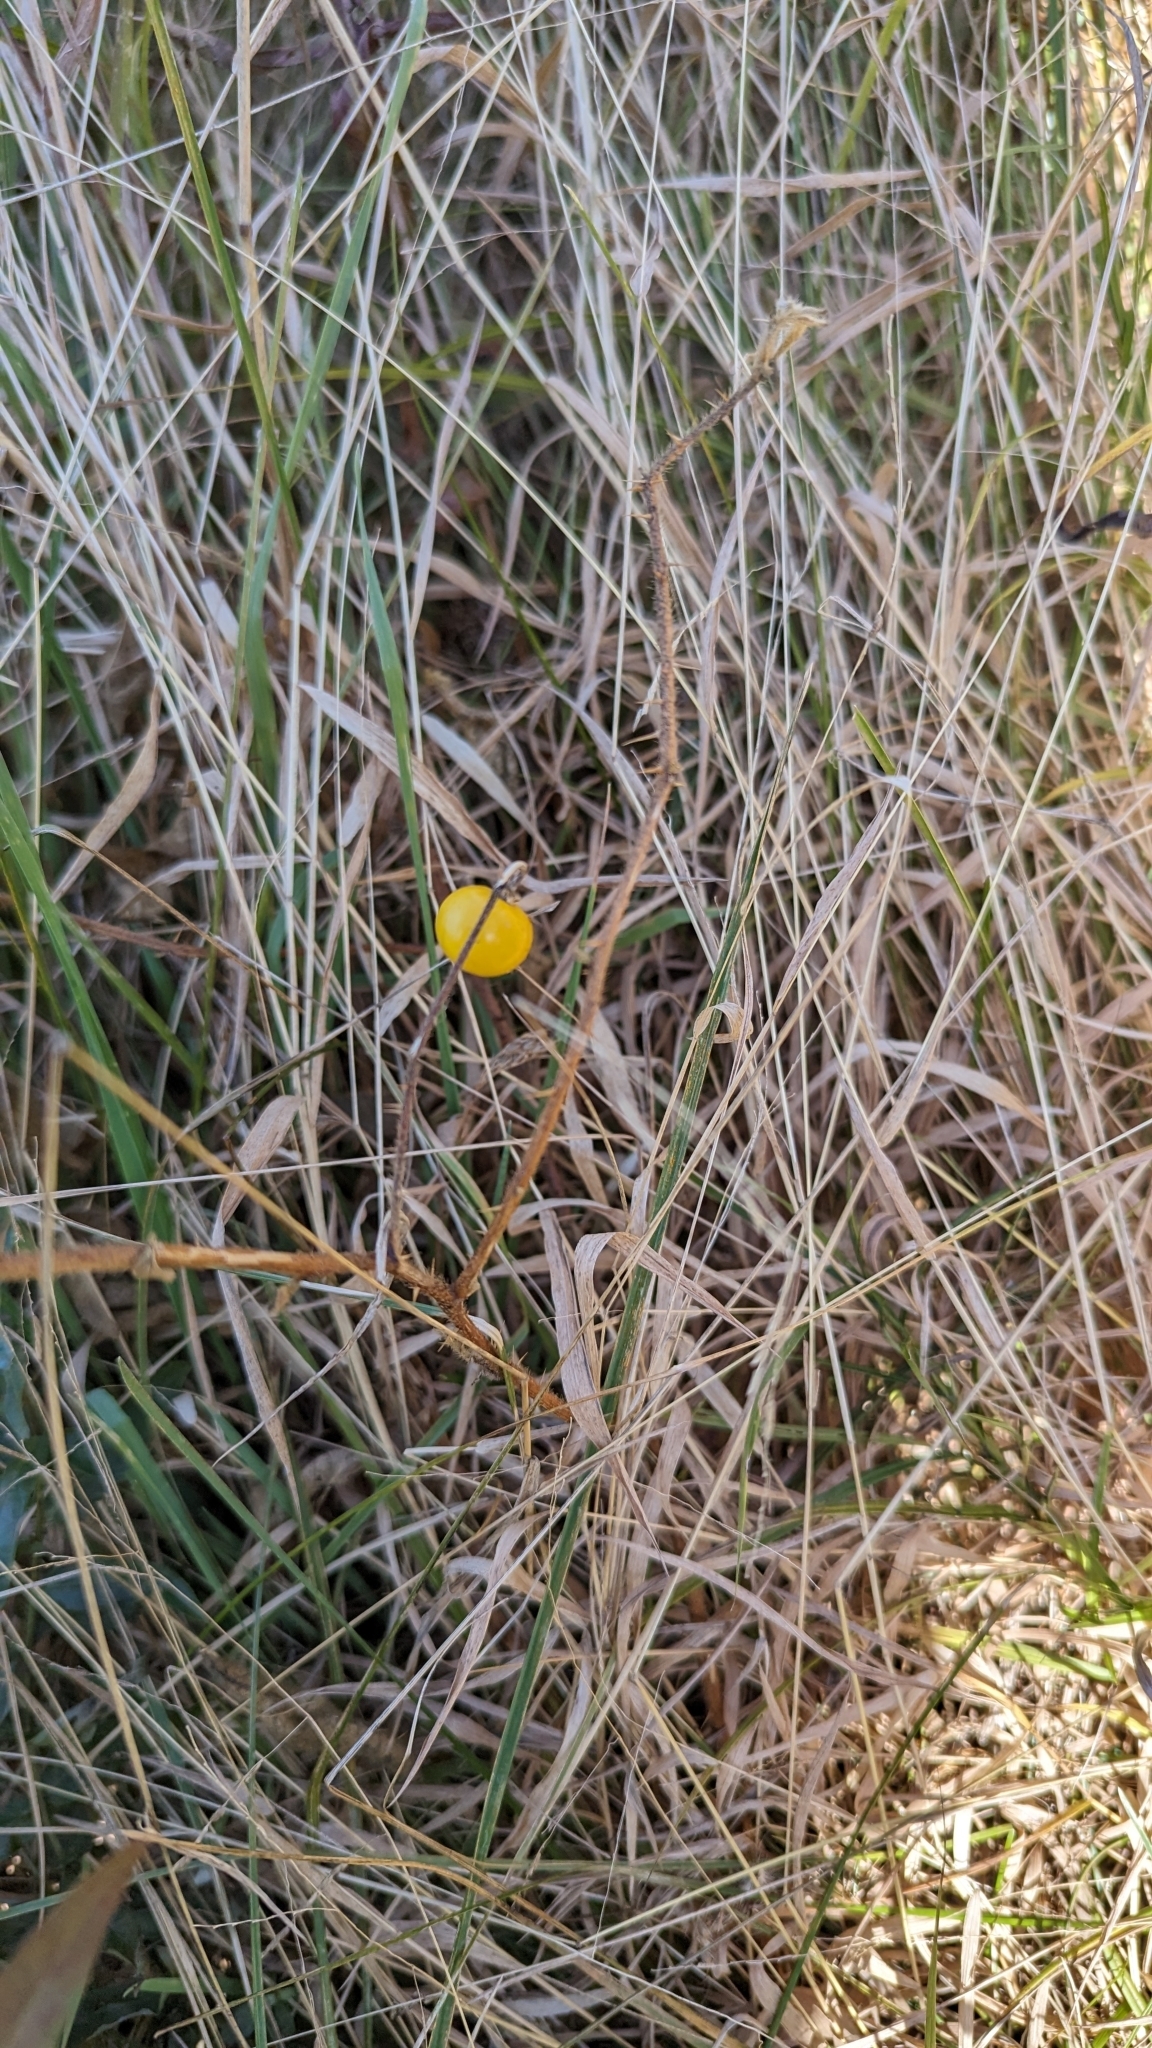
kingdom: Plantae
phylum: Tracheophyta
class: Magnoliopsida
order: Solanales
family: Solanaceae
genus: Solanum
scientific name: Solanum carolinense
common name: Horse-nettle
